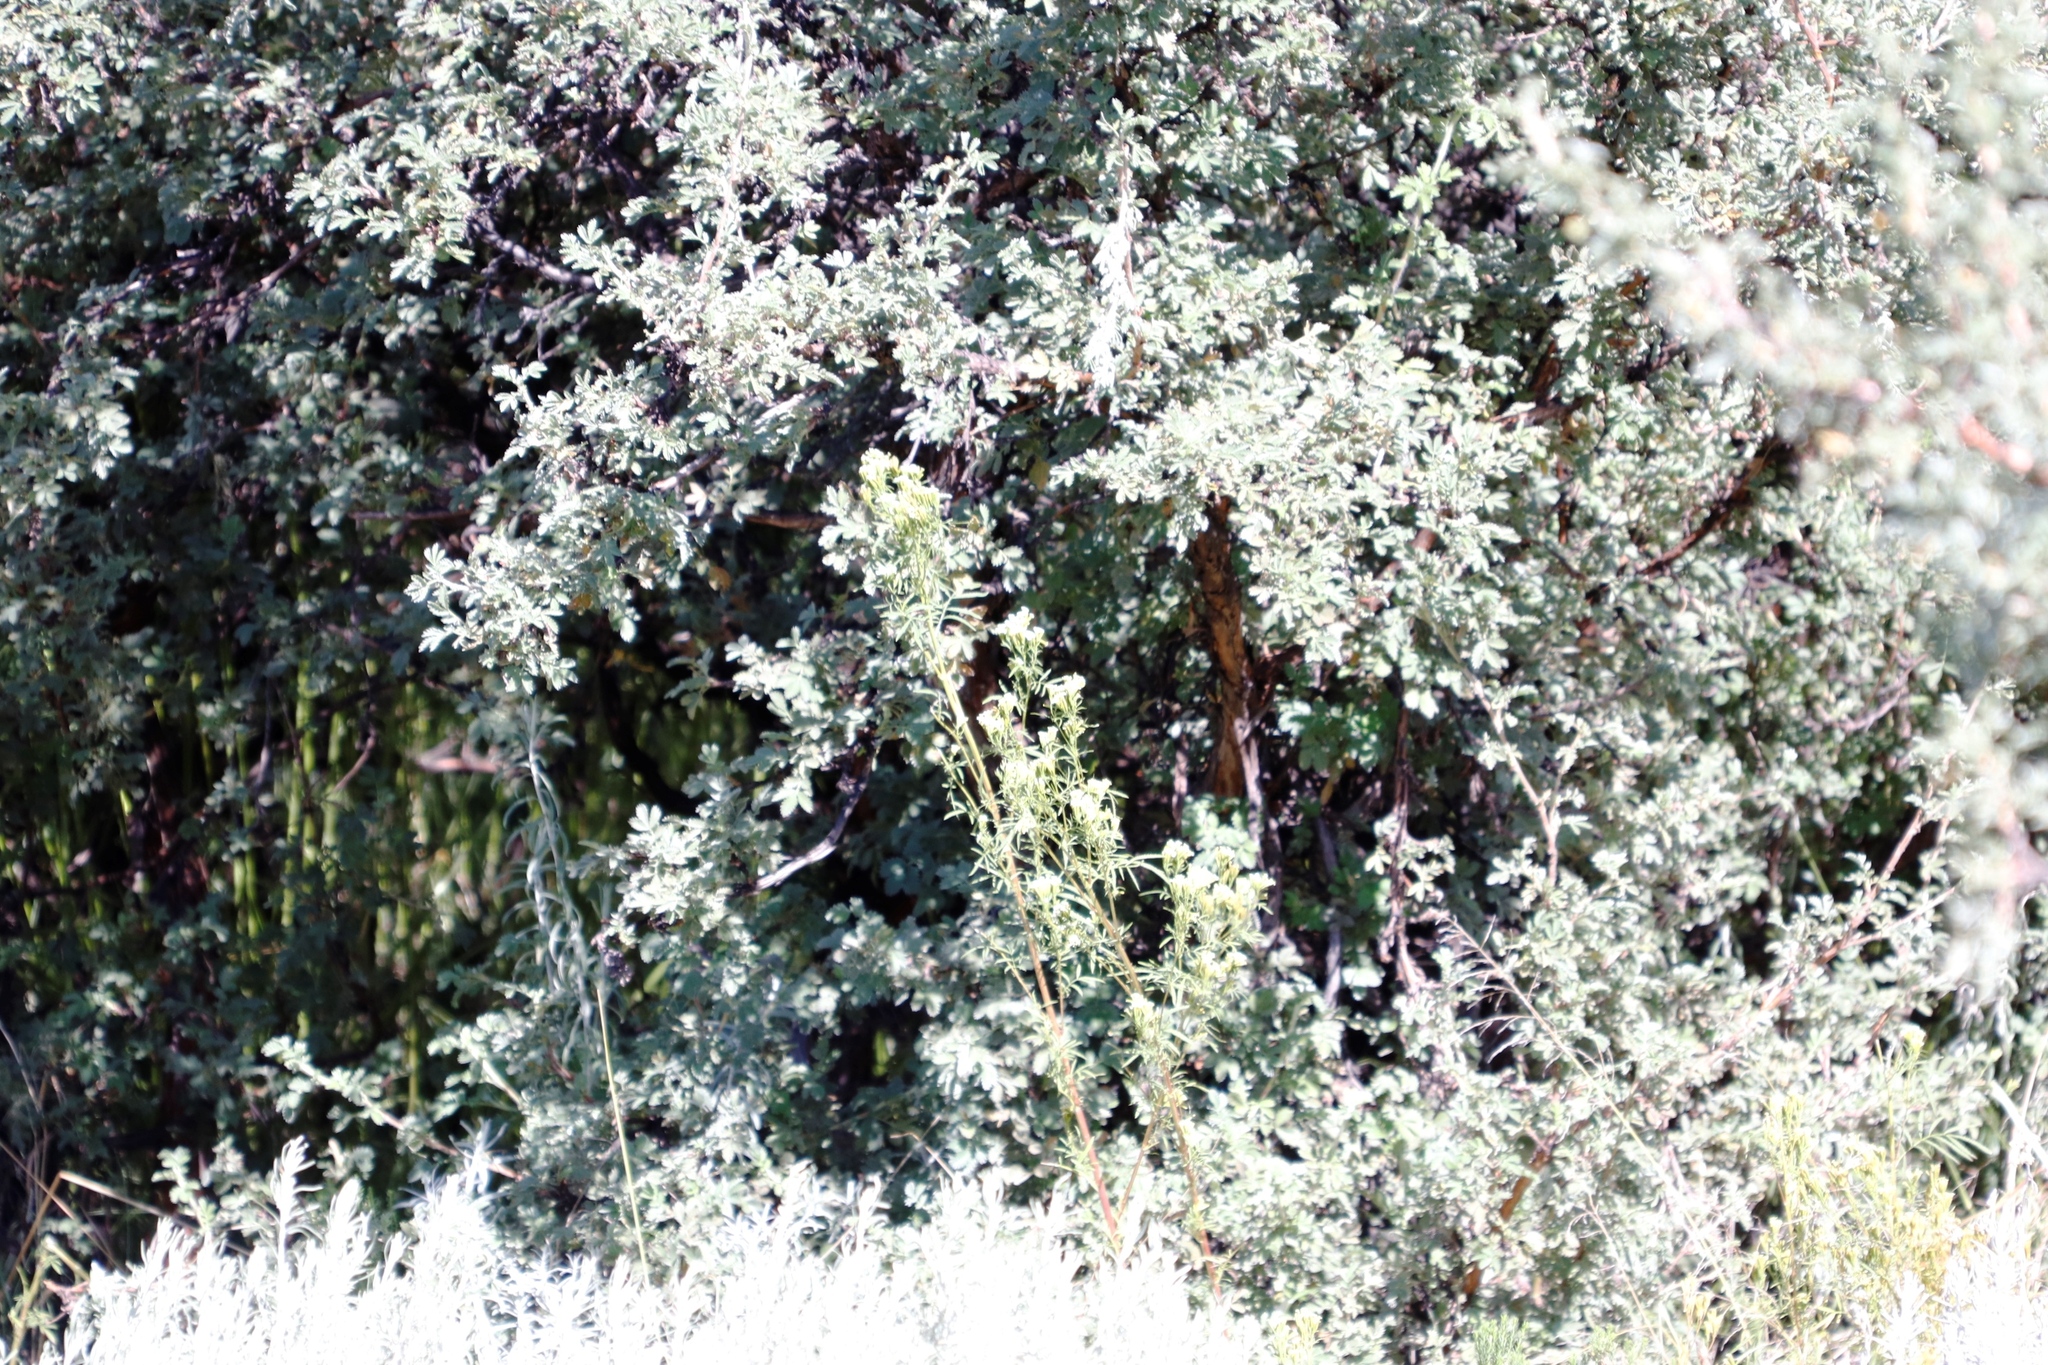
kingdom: Plantae
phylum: Tracheophyta
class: Magnoliopsida
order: Asterales
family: Asteraceae
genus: Tagetes
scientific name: Tagetes minuta
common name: Muster john henry
